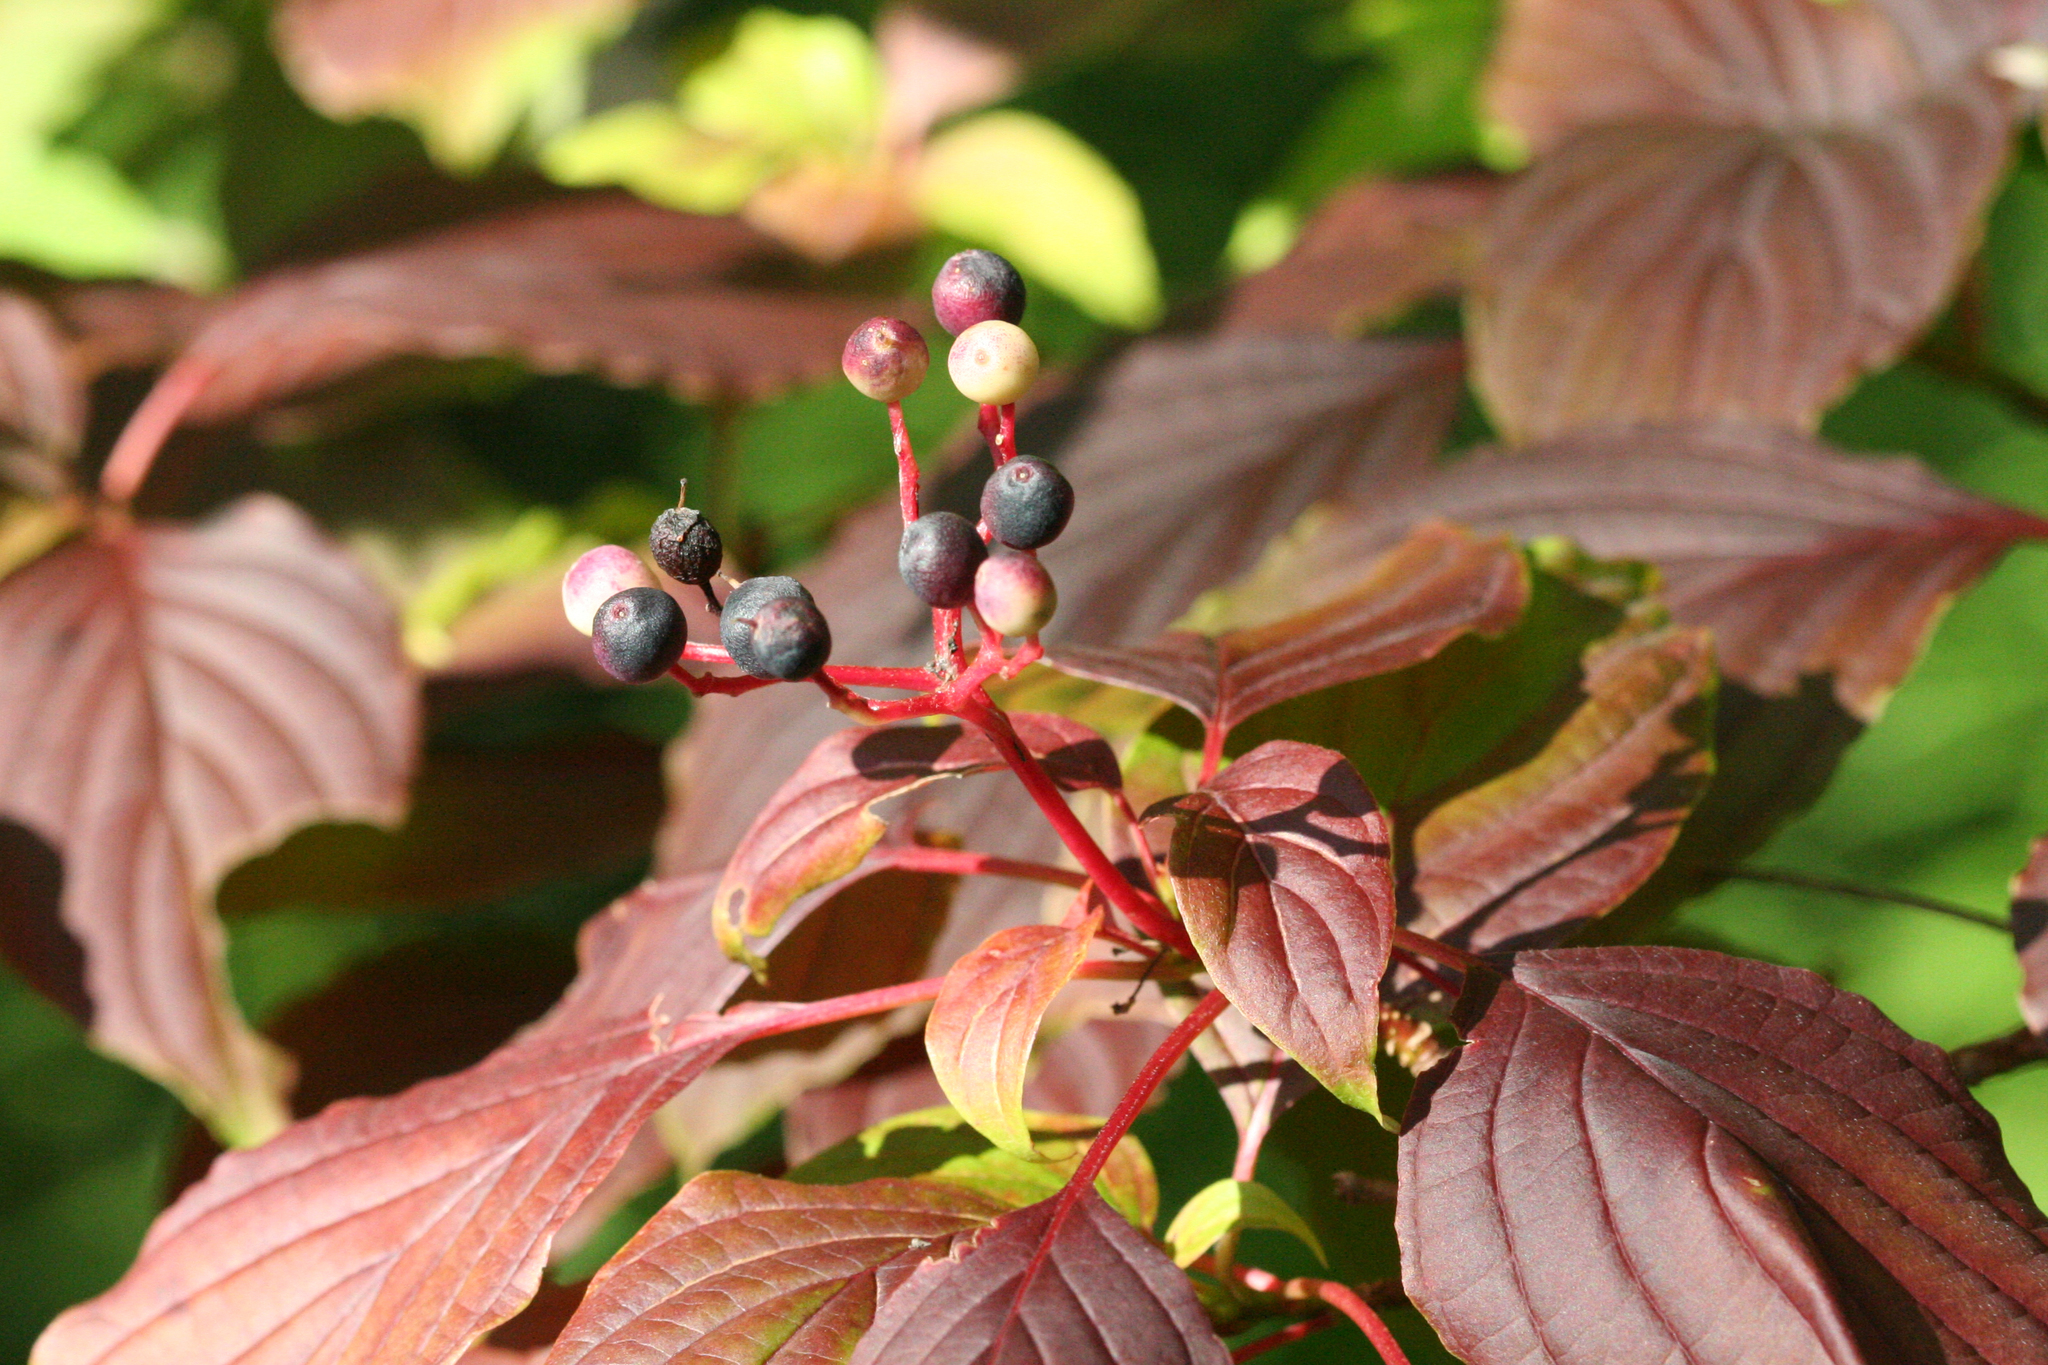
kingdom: Plantae
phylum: Tracheophyta
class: Magnoliopsida
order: Cornales
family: Cornaceae
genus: Cornus
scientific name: Cornus alternifolia
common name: Pagoda dogwood
